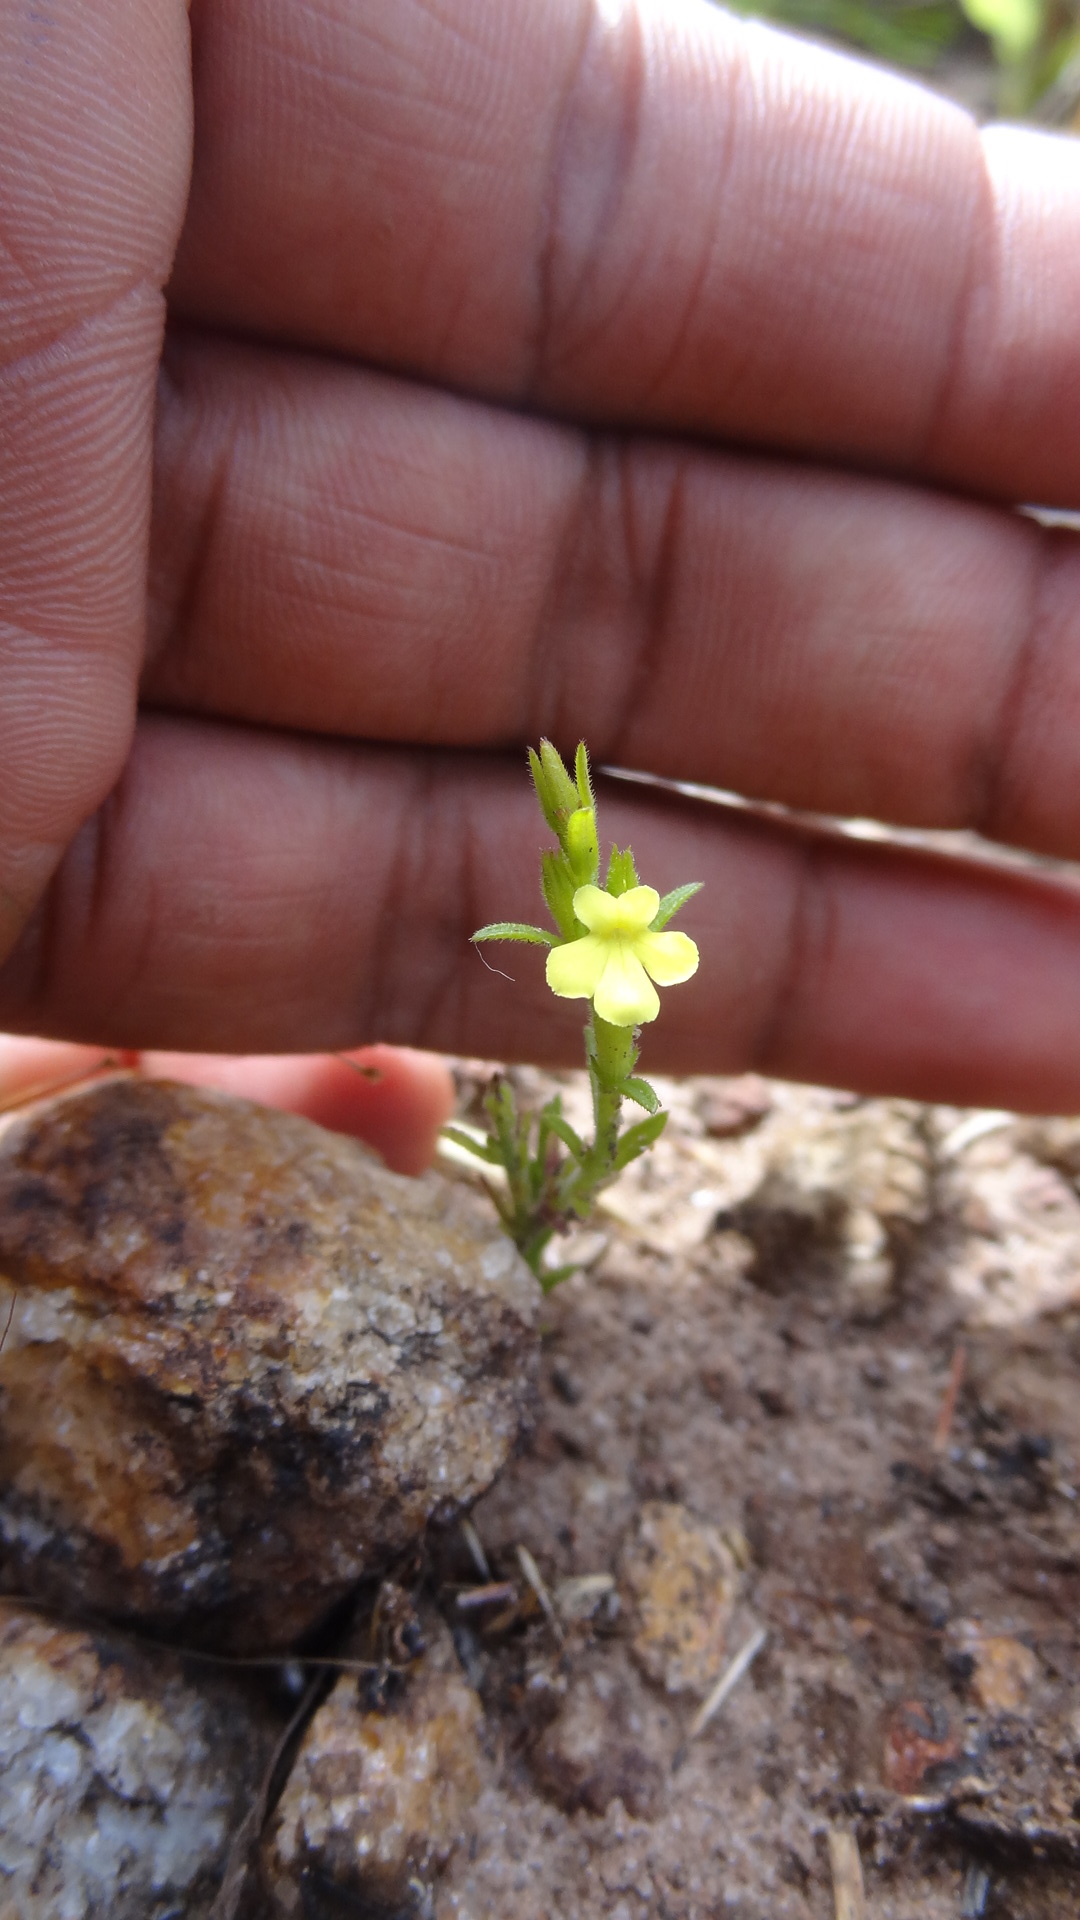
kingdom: Plantae
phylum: Tracheophyta
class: Magnoliopsida
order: Lamiales
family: Orobanchaceae
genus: Striga
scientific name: Striga asiatica
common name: Asiatic witchweed
